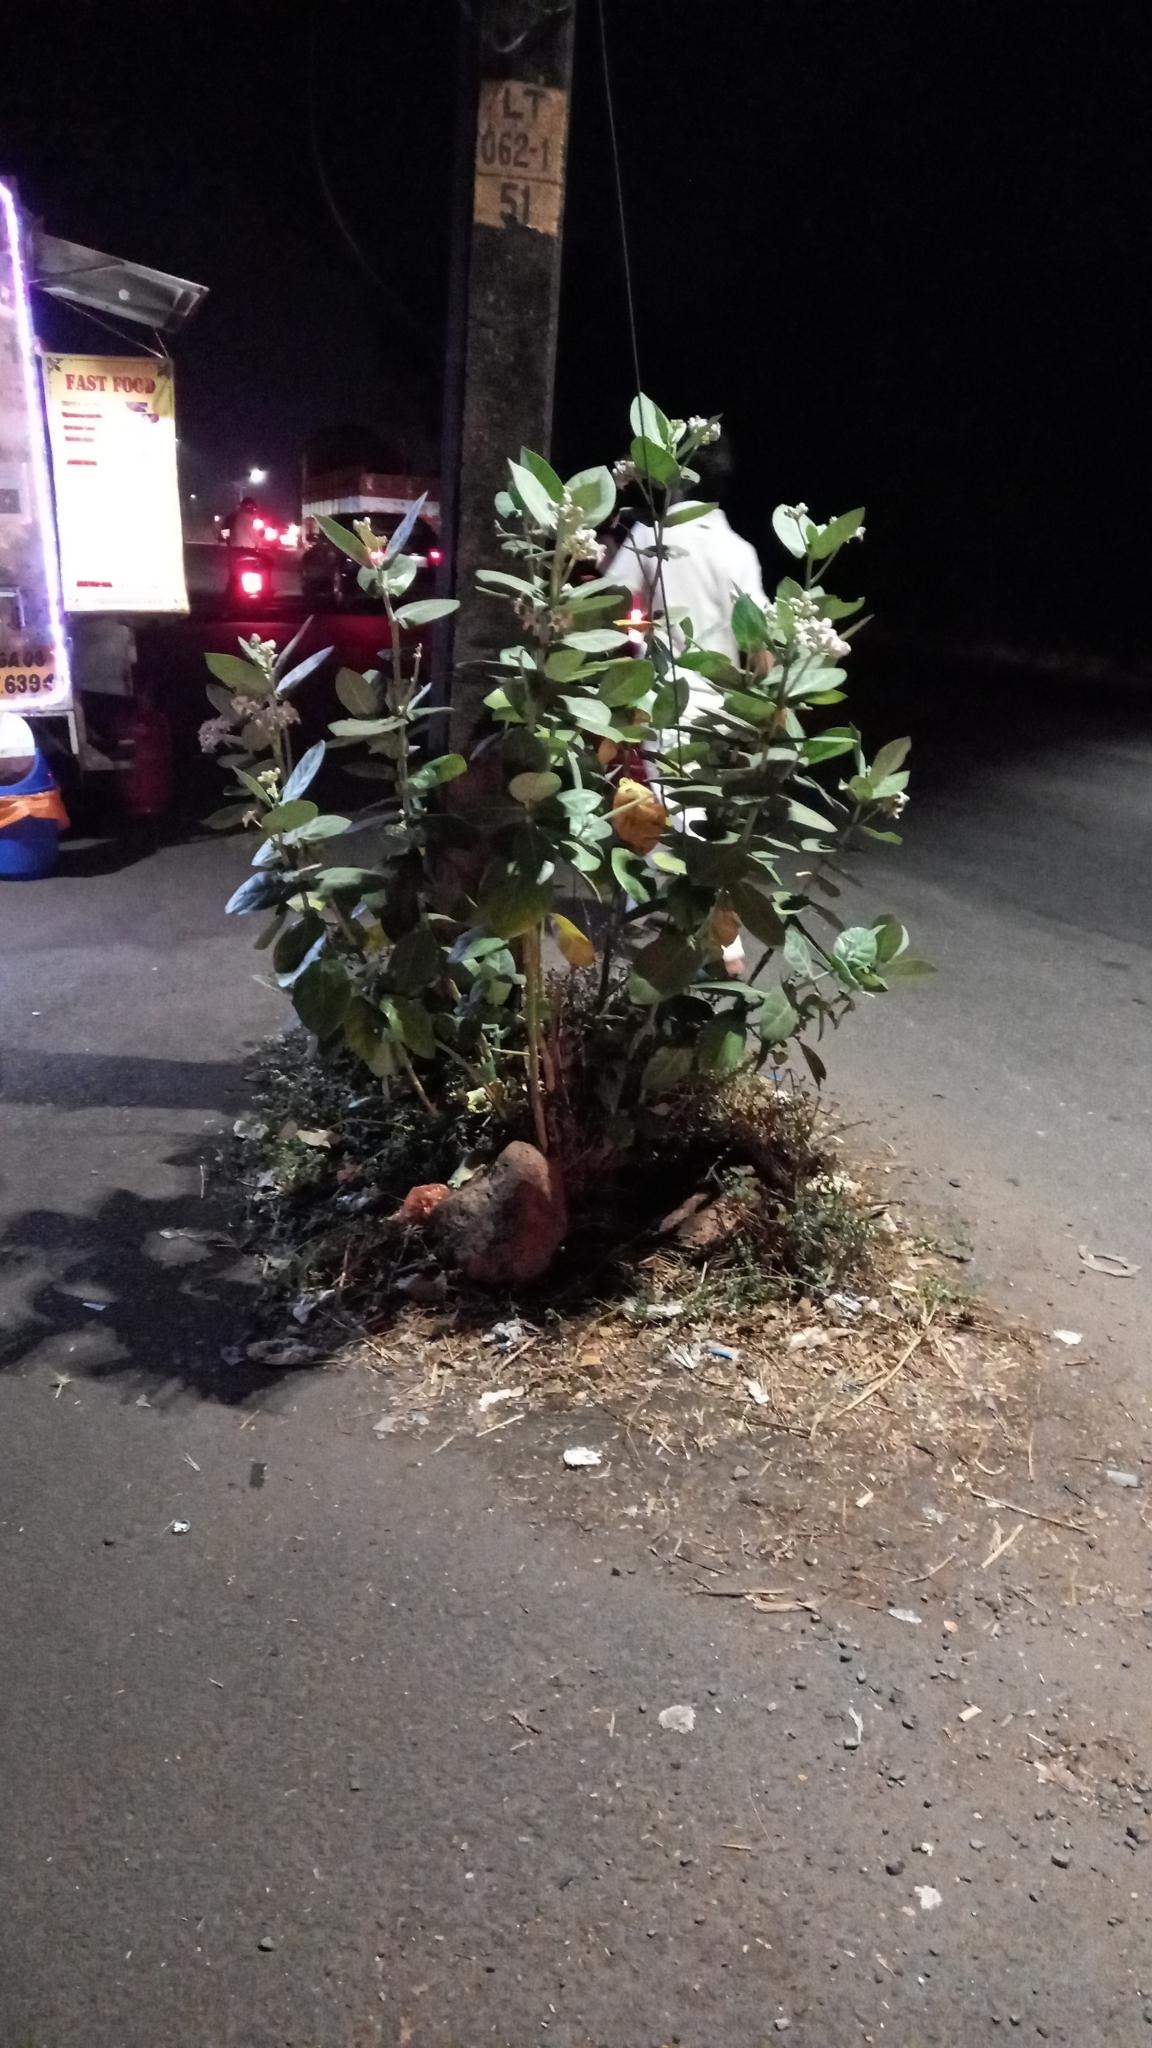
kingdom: Plantae
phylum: Tracheophyta
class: Magnoliopsida
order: Gentianales
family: Apocynaceae
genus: Calotropis
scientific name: Calotropis gigantea
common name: Crown flower
